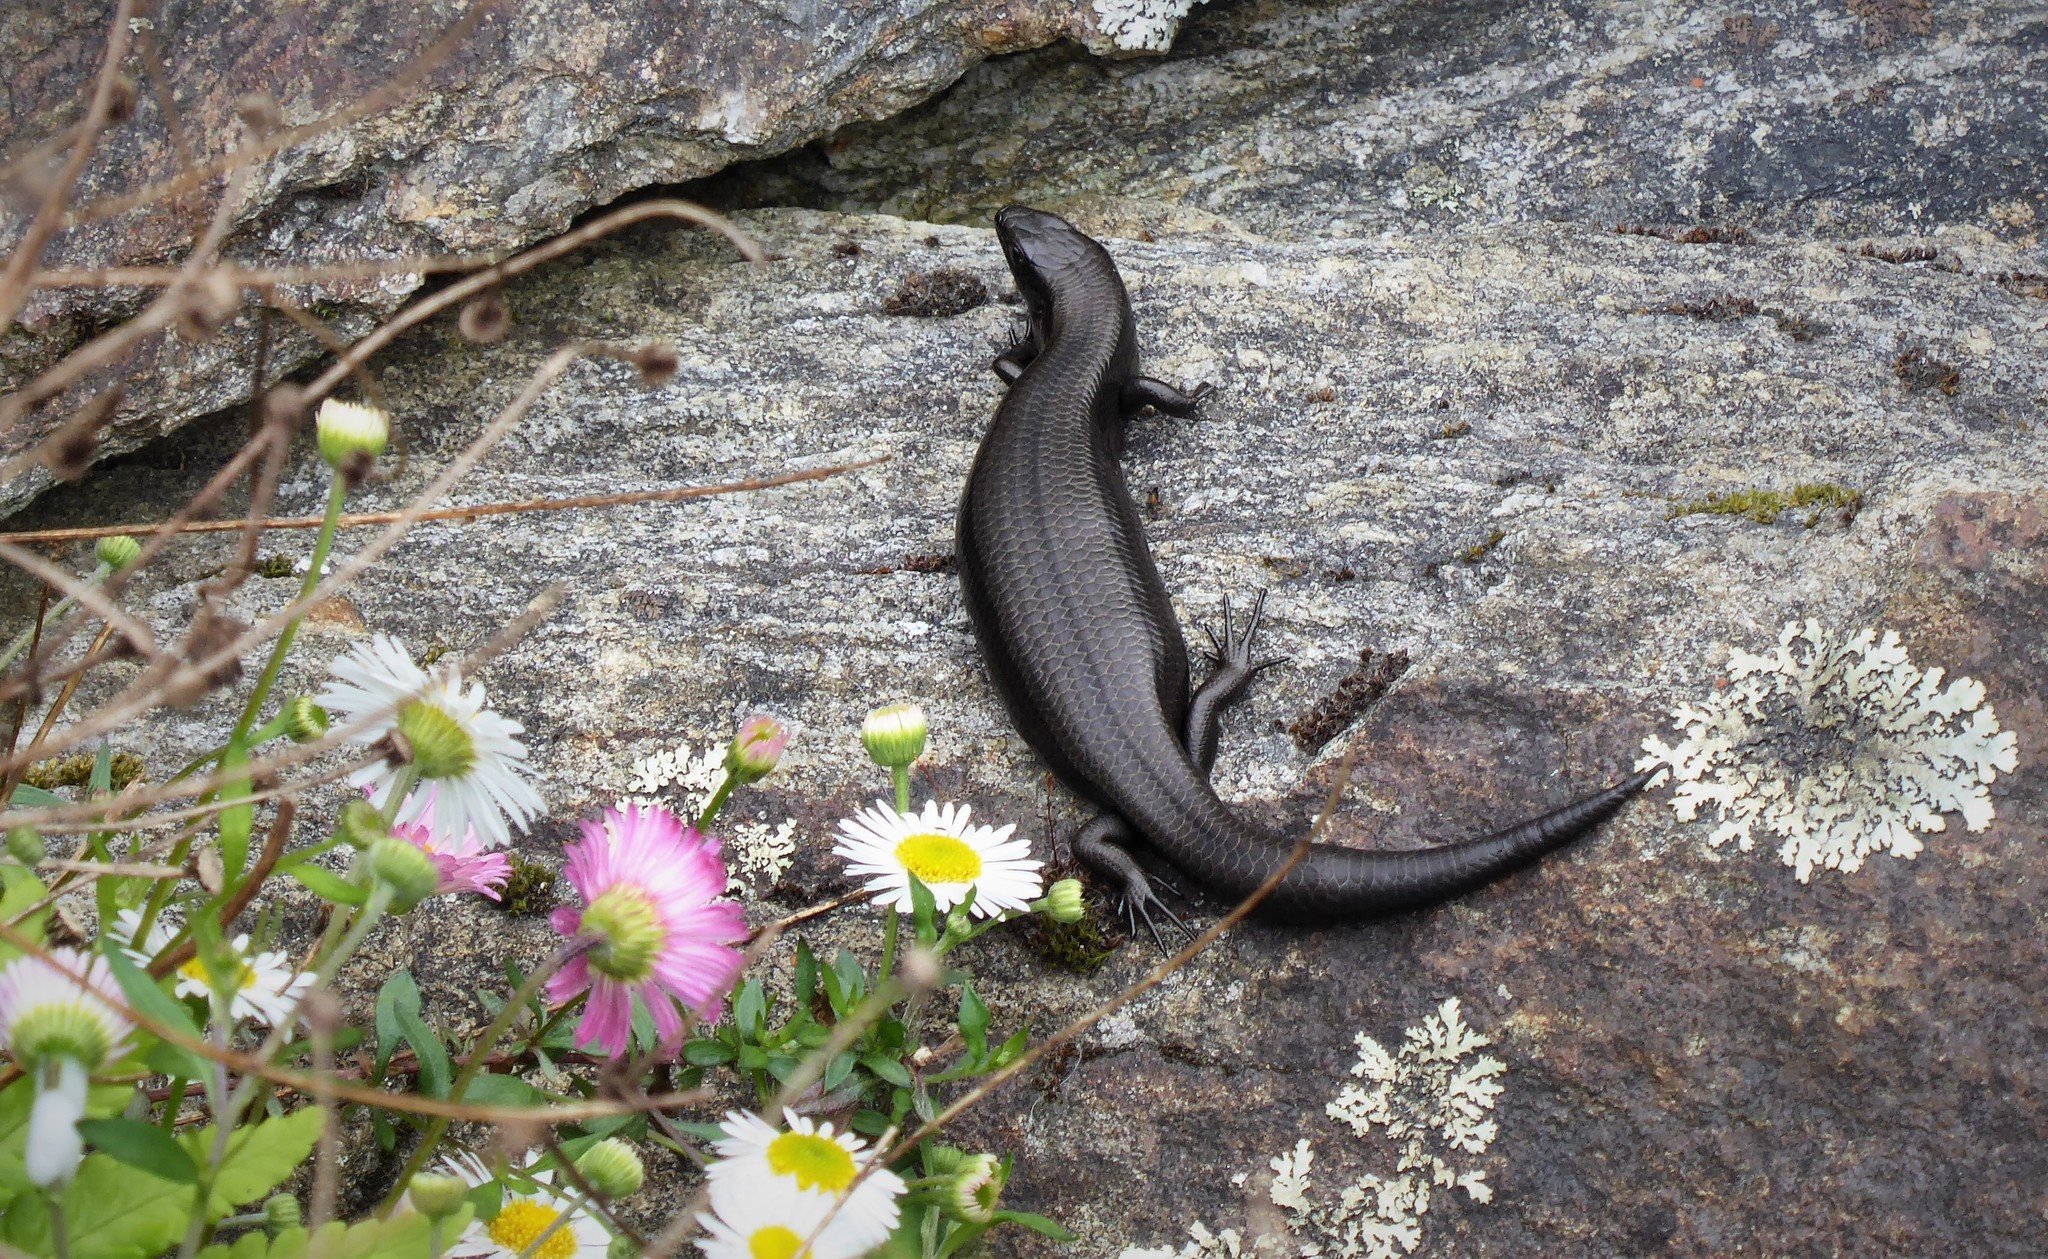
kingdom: Animalia
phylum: Chordata
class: Squamata
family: Scincidae
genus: Oligosoma
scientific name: Oligosoma polychroma
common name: Common new zealand skink
